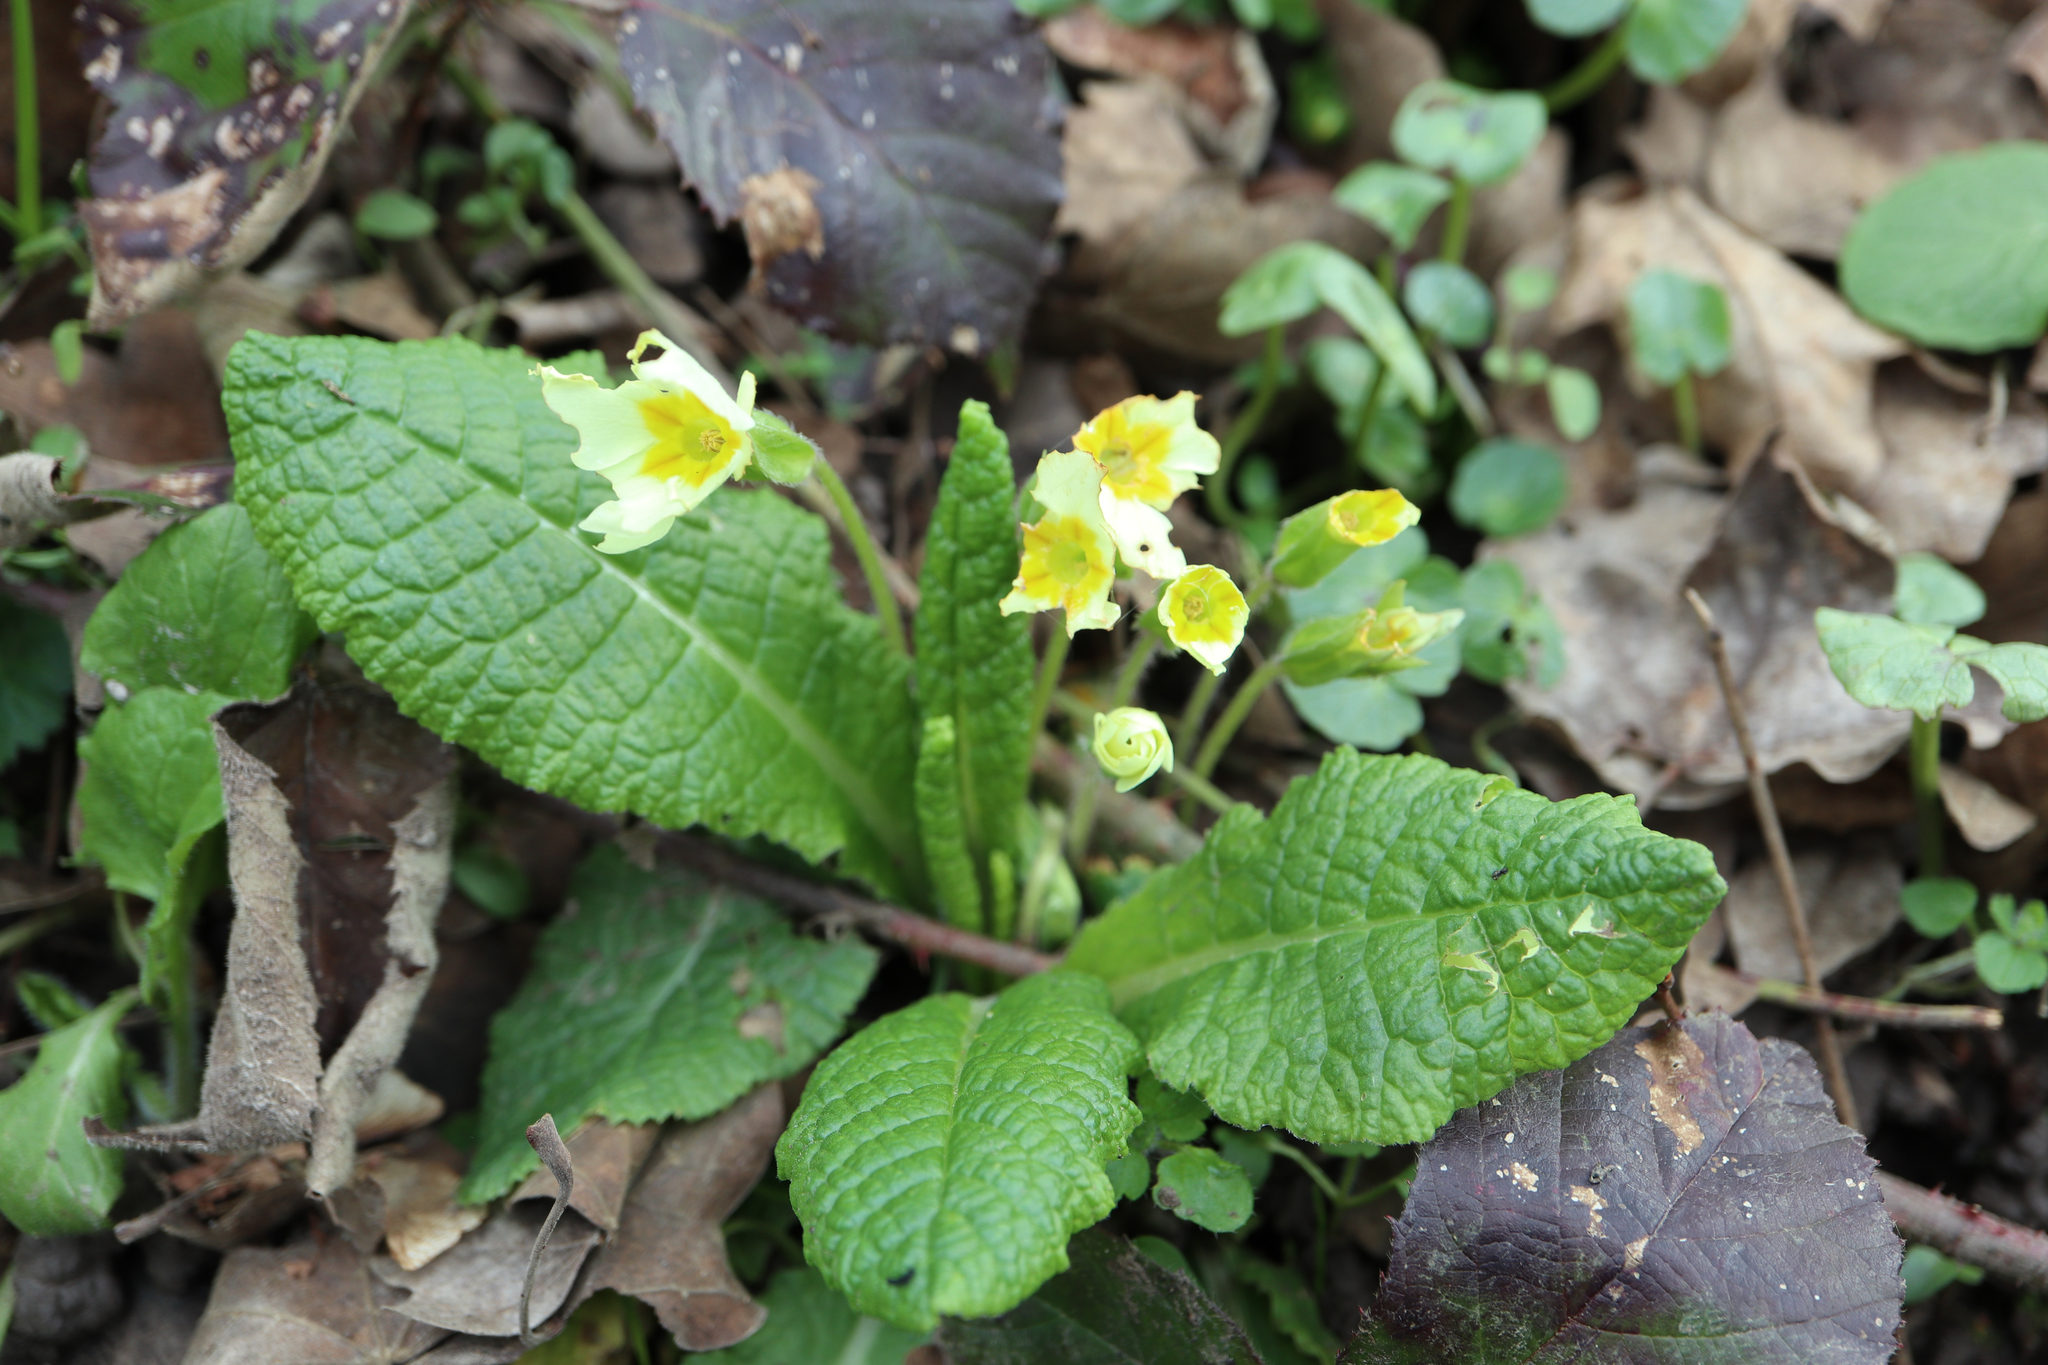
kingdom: Plantae
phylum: Tracheophyta
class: Magnoliopsida
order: Ericales
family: Primulaceae
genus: Primula
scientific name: Primula vulgaris
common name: Primrose
